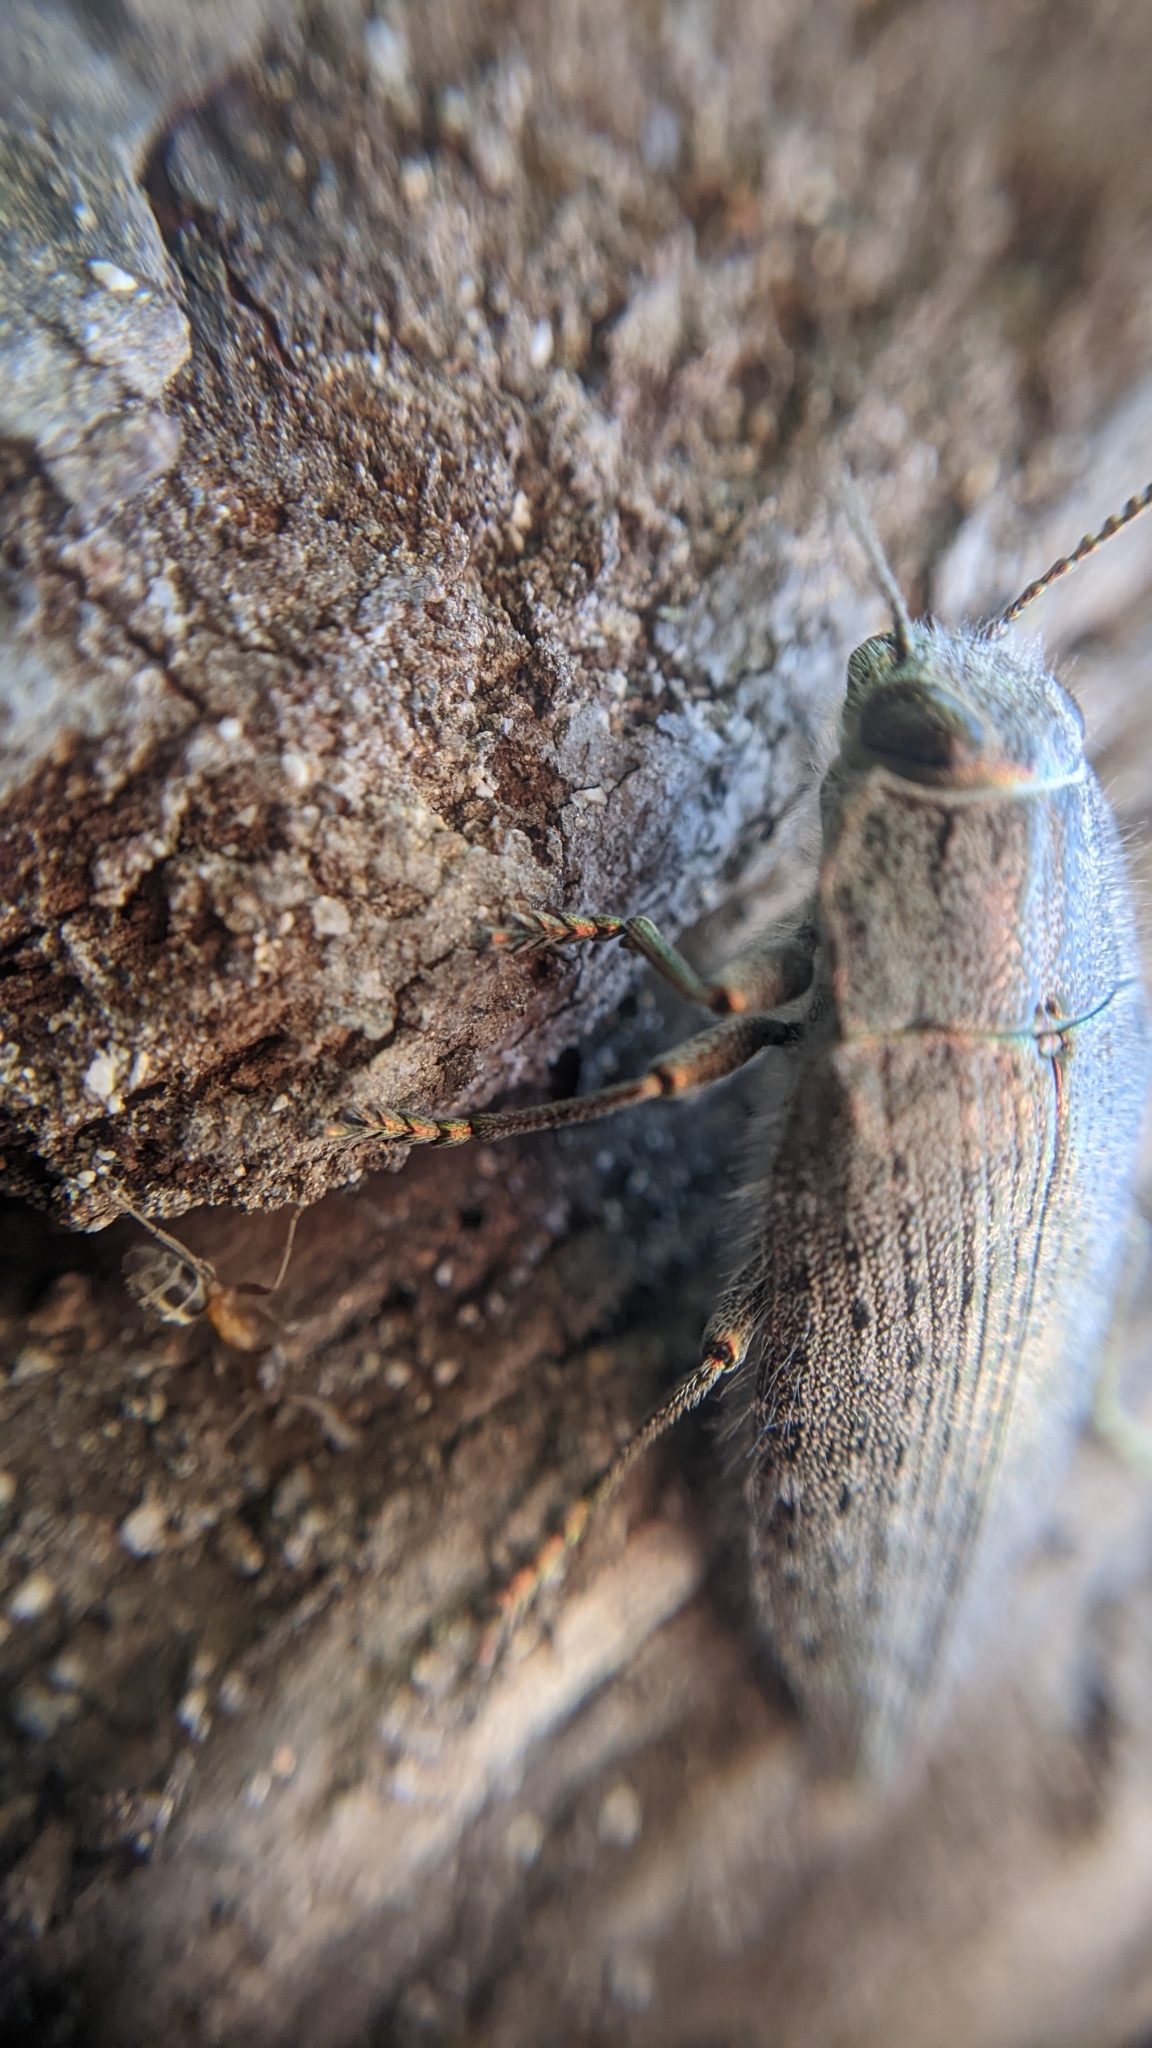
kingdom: Animalia
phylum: Arthropoda
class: Insecta
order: Coleoptera
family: Buprestidae
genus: Dicerca
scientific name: Dicerca hornii
